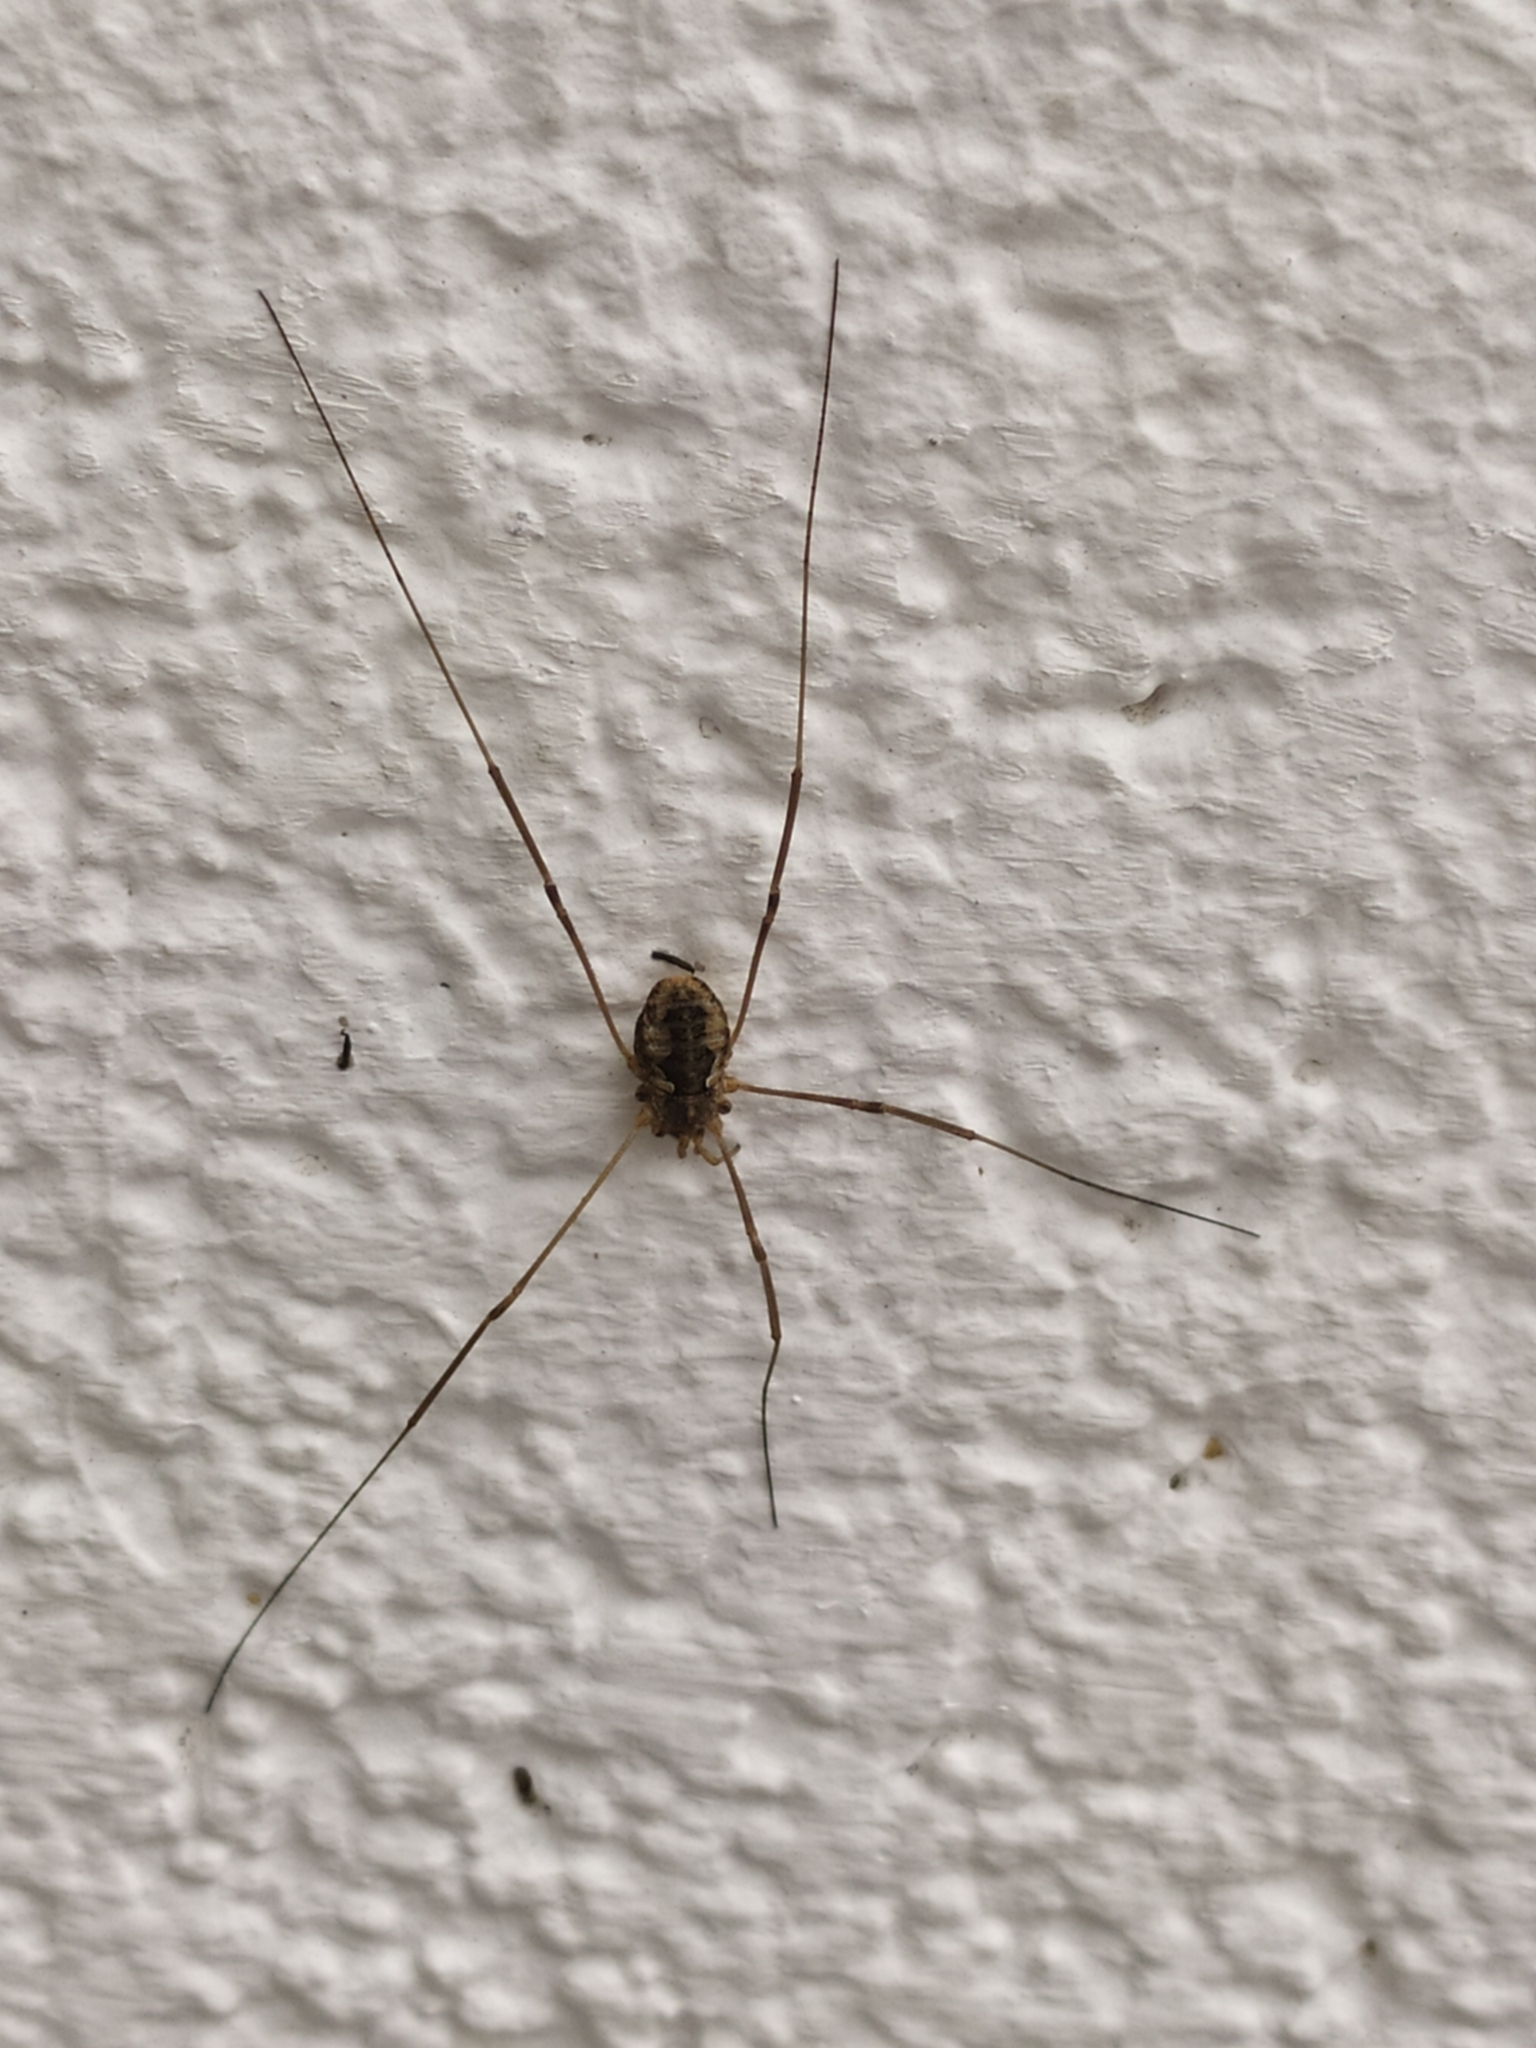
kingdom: Animalia
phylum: Arthropoda
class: Arachnida
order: Opiliones
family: Phalangiidae
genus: Phalangium
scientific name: Phalangium opilio
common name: Daddy longleg
